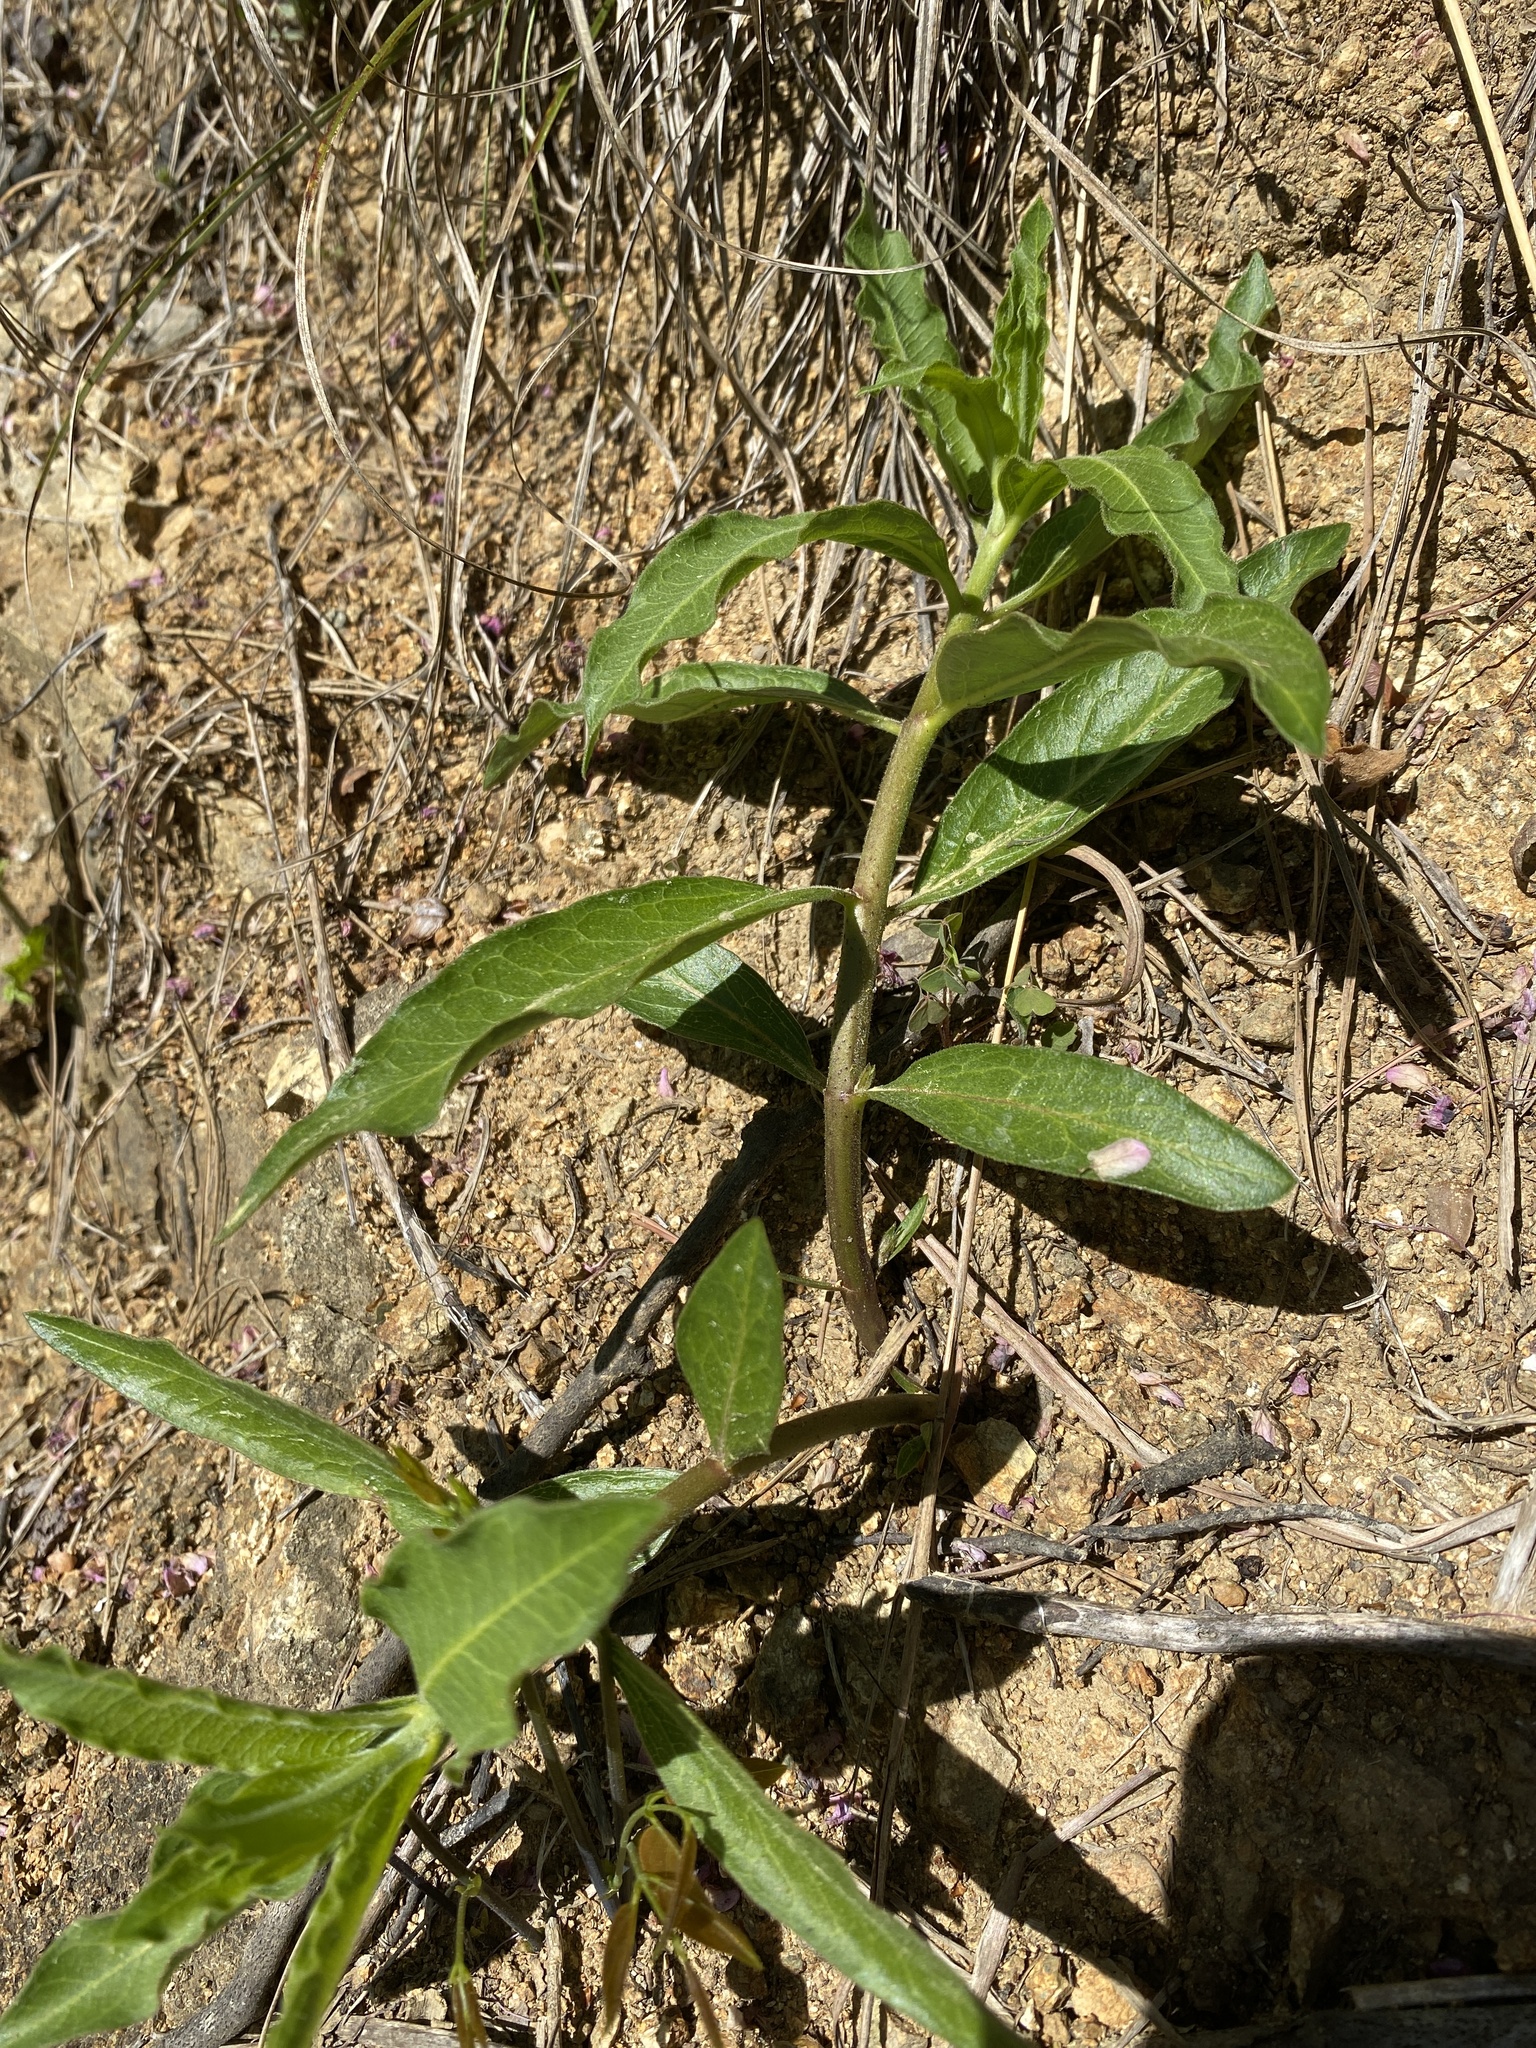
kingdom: Plantae
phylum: Tracheophyta
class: Magnoliopsida
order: Gentianales
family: Apocynaceae
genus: Asclepias
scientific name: Asclepias viridiflora
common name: Green comet milkweed
